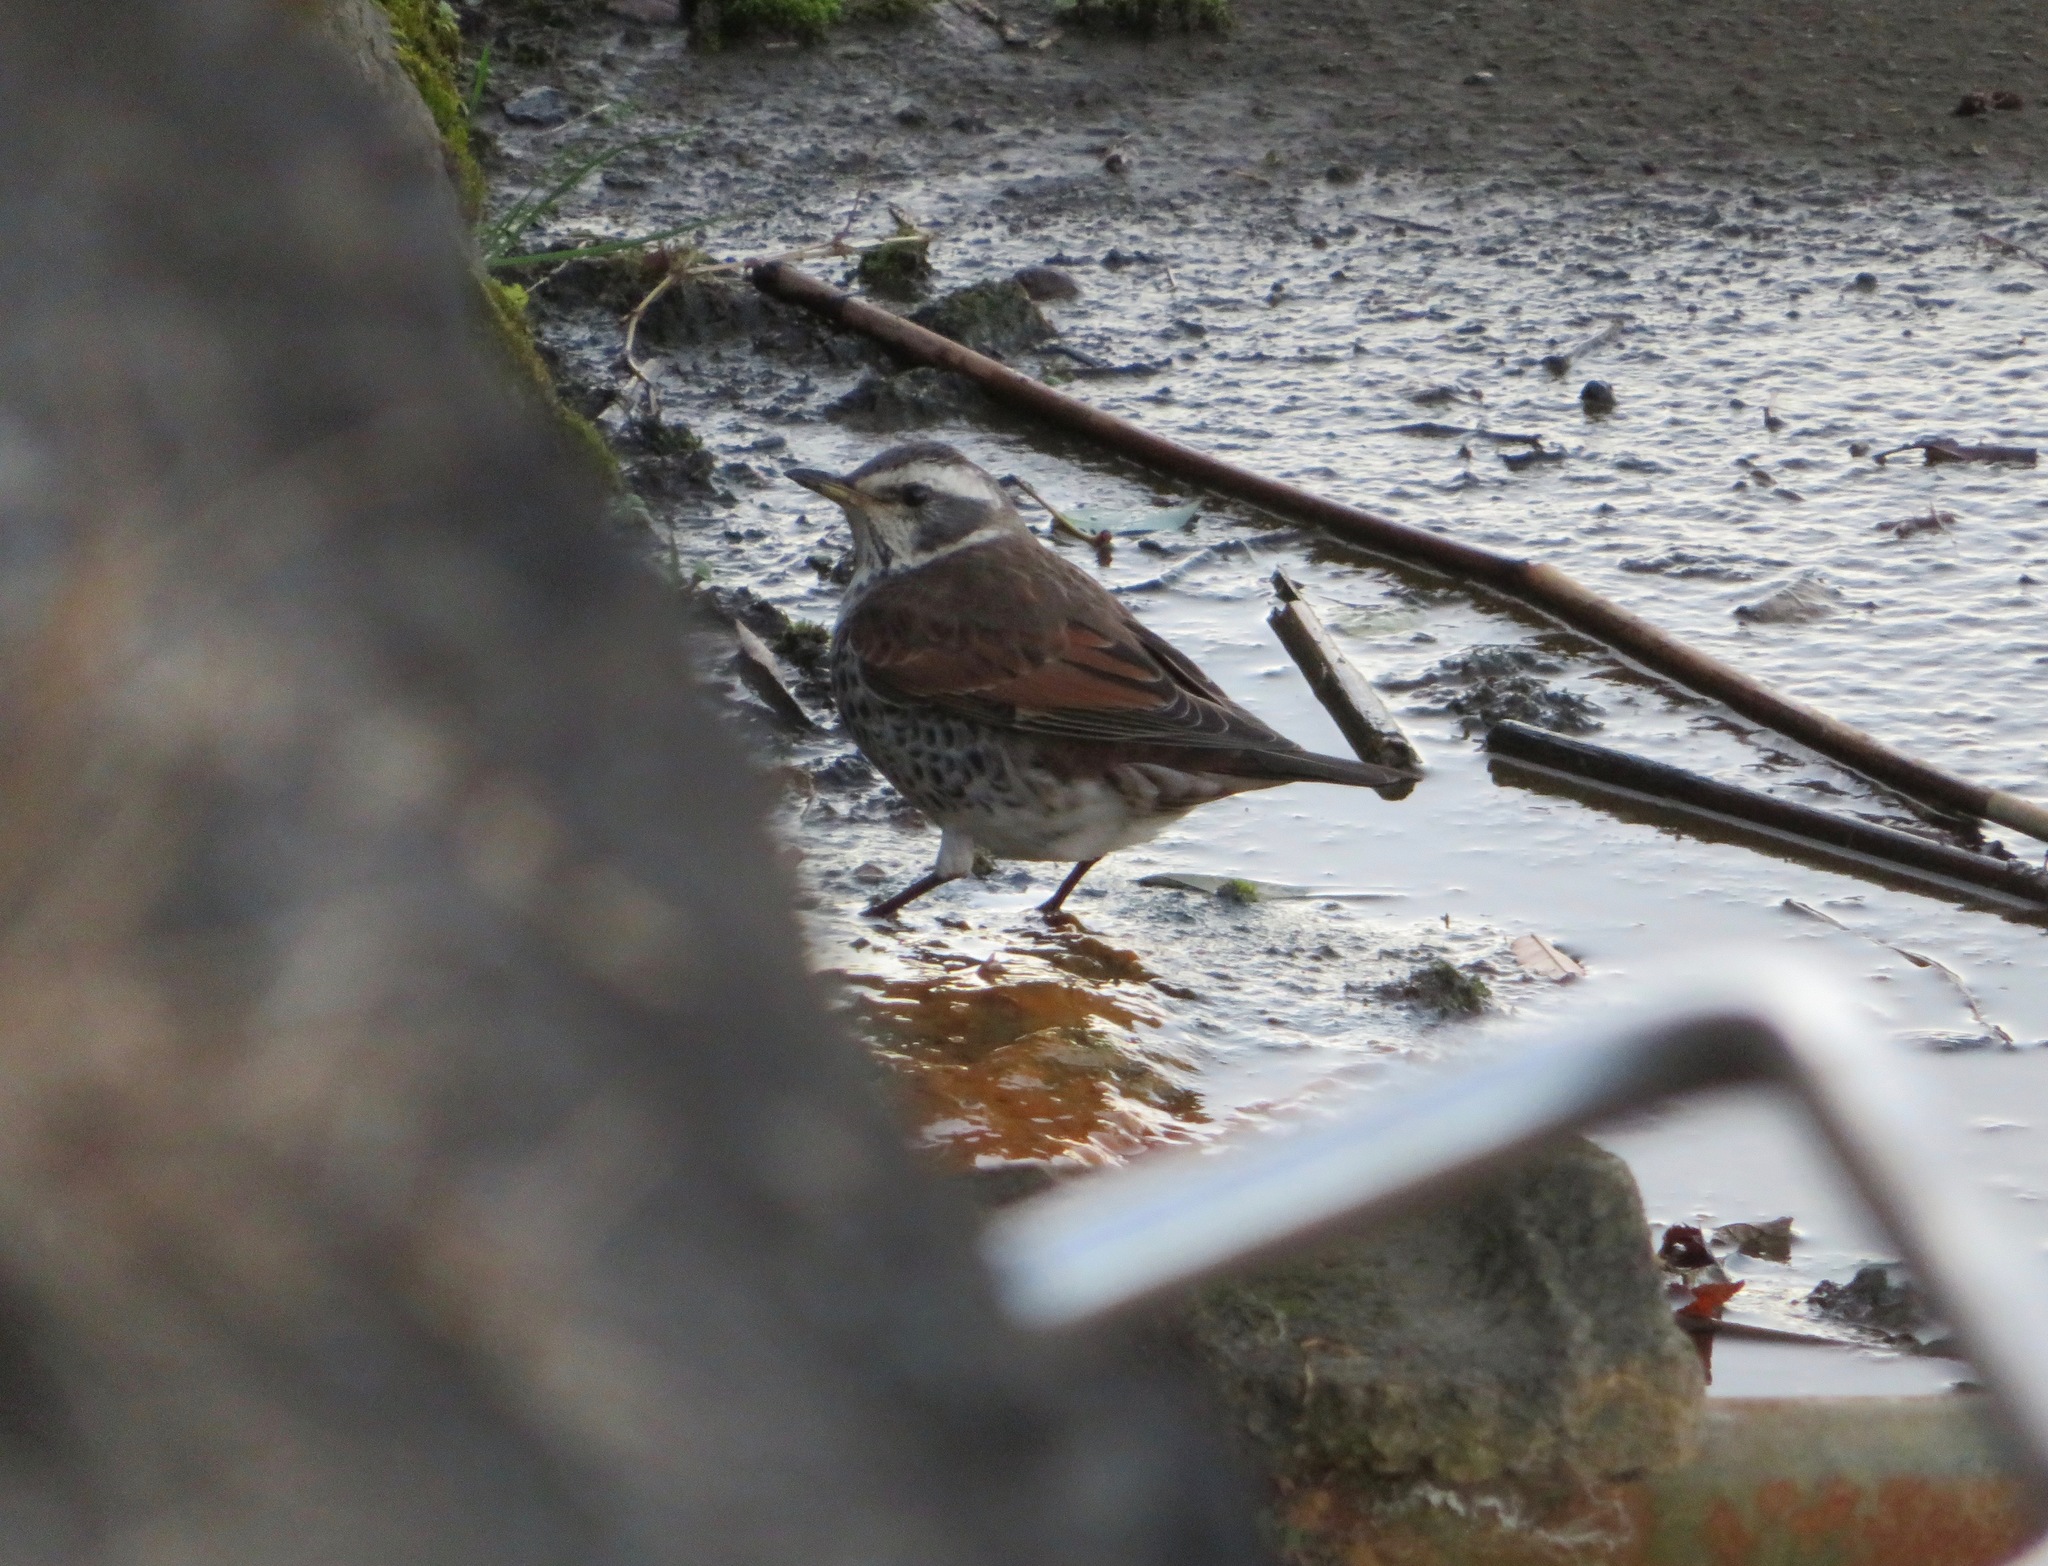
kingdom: Animalia
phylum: Chordata
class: Aves
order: Passeriformes
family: Turdidae
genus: Turdus
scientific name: Turdus eunomus
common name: Dusky thrush
